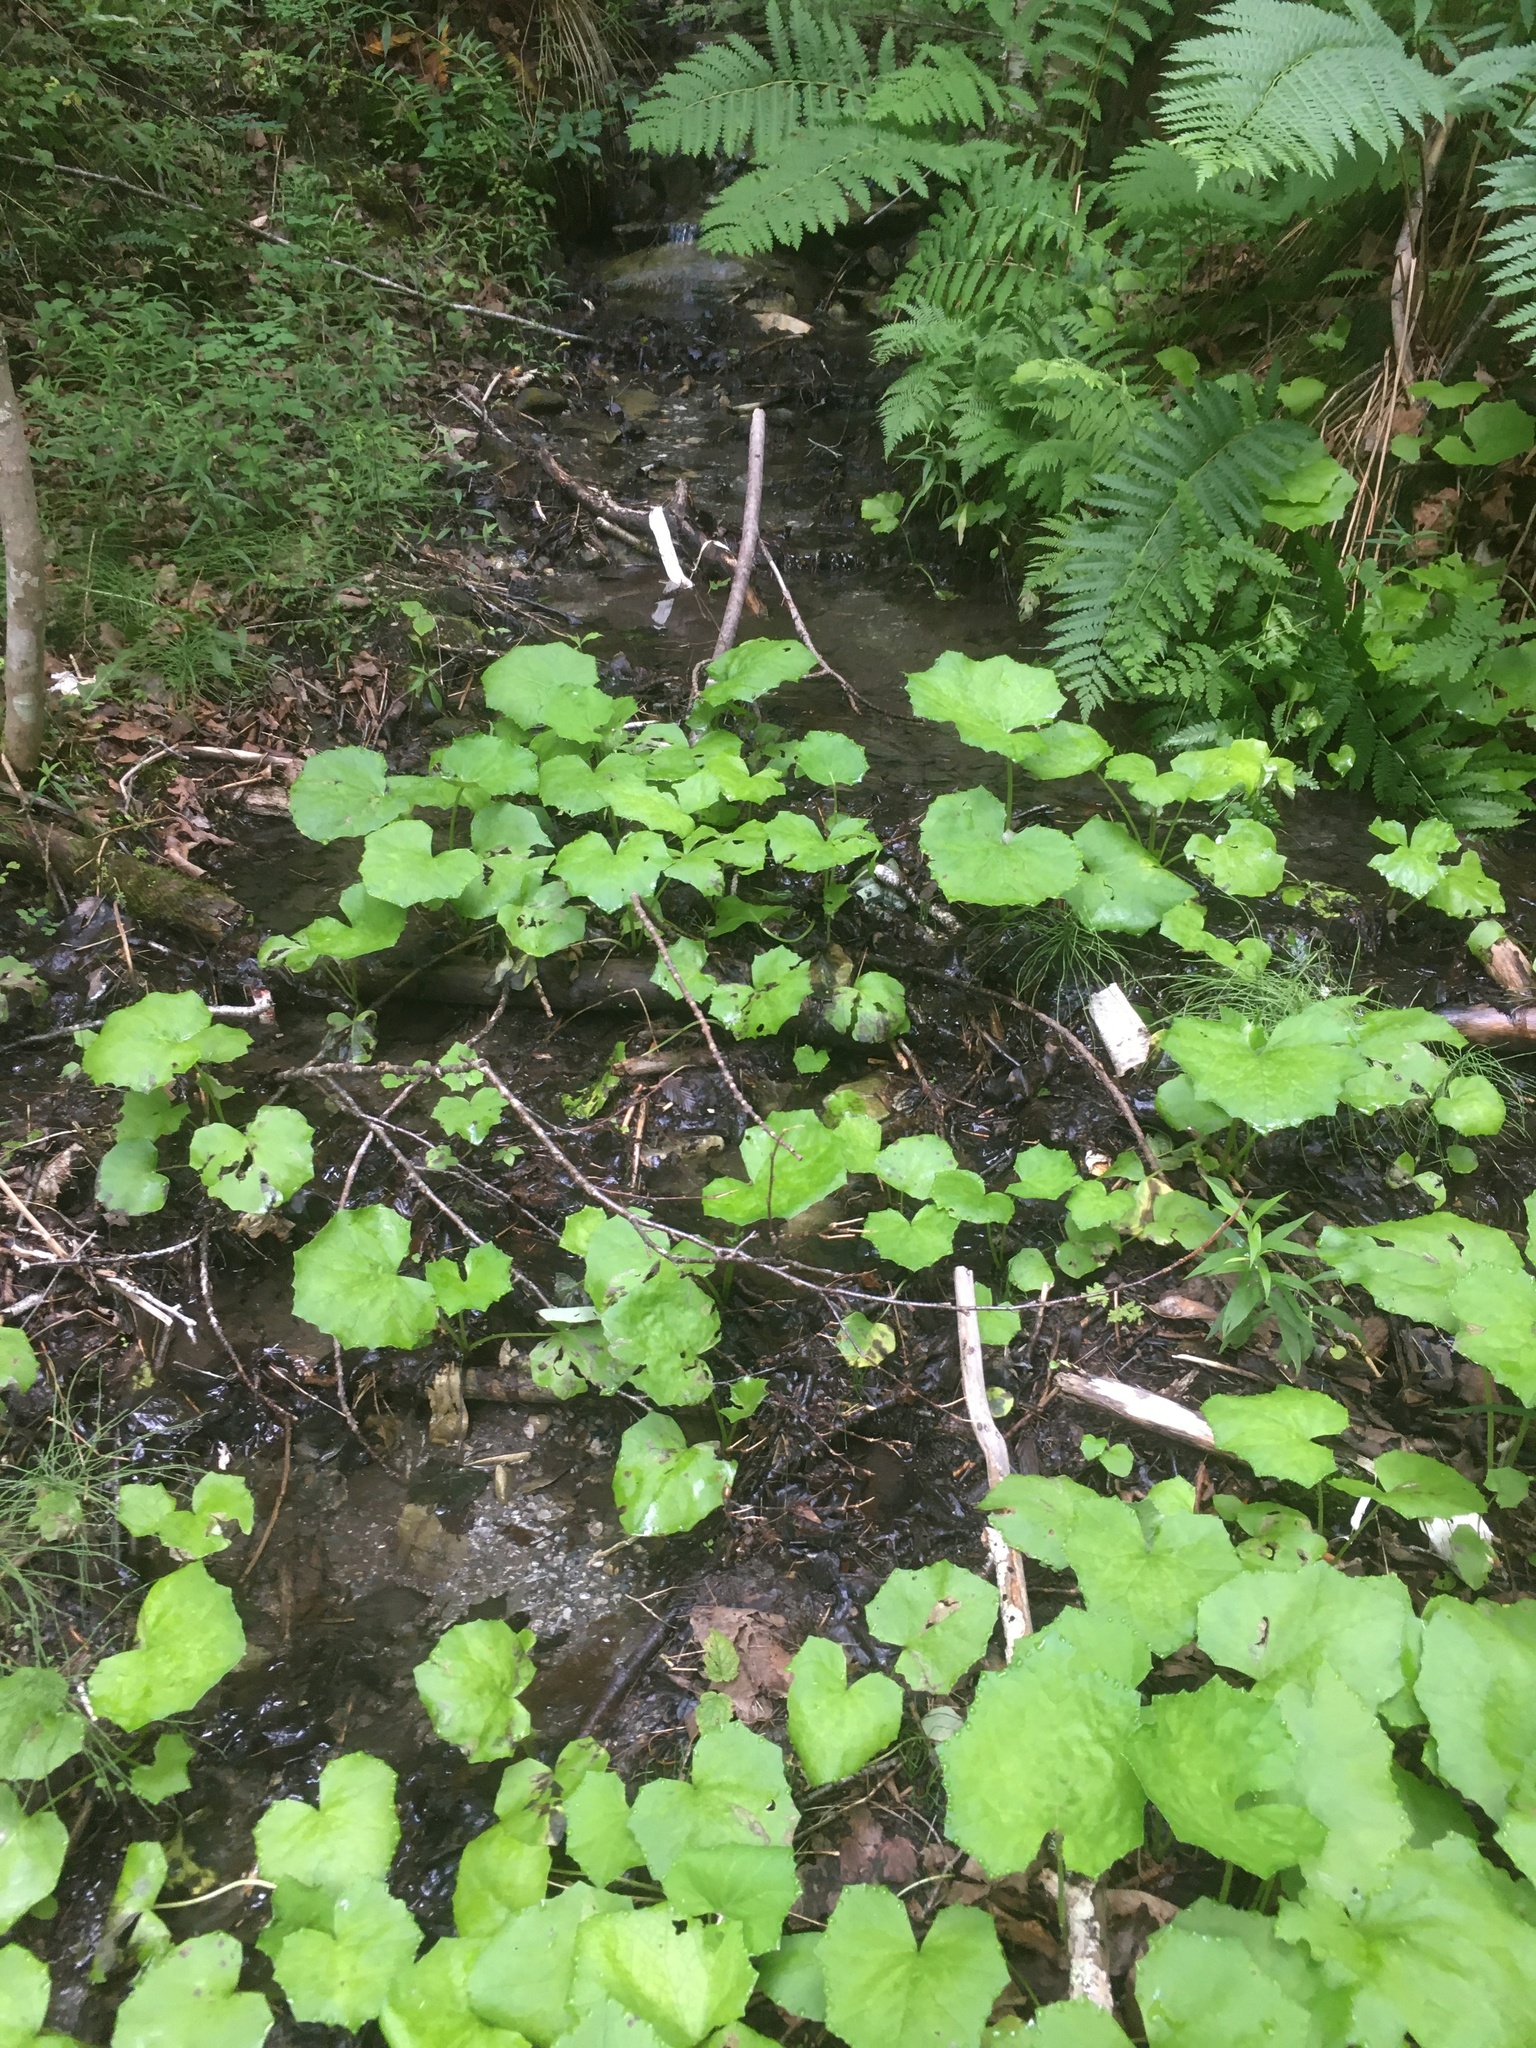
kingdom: Plantae
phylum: Tracheophyta
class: Magnoliopsida
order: Asterales
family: Asteraceae
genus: Tussilago
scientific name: Tussilago farfara
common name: Coltsfoot
